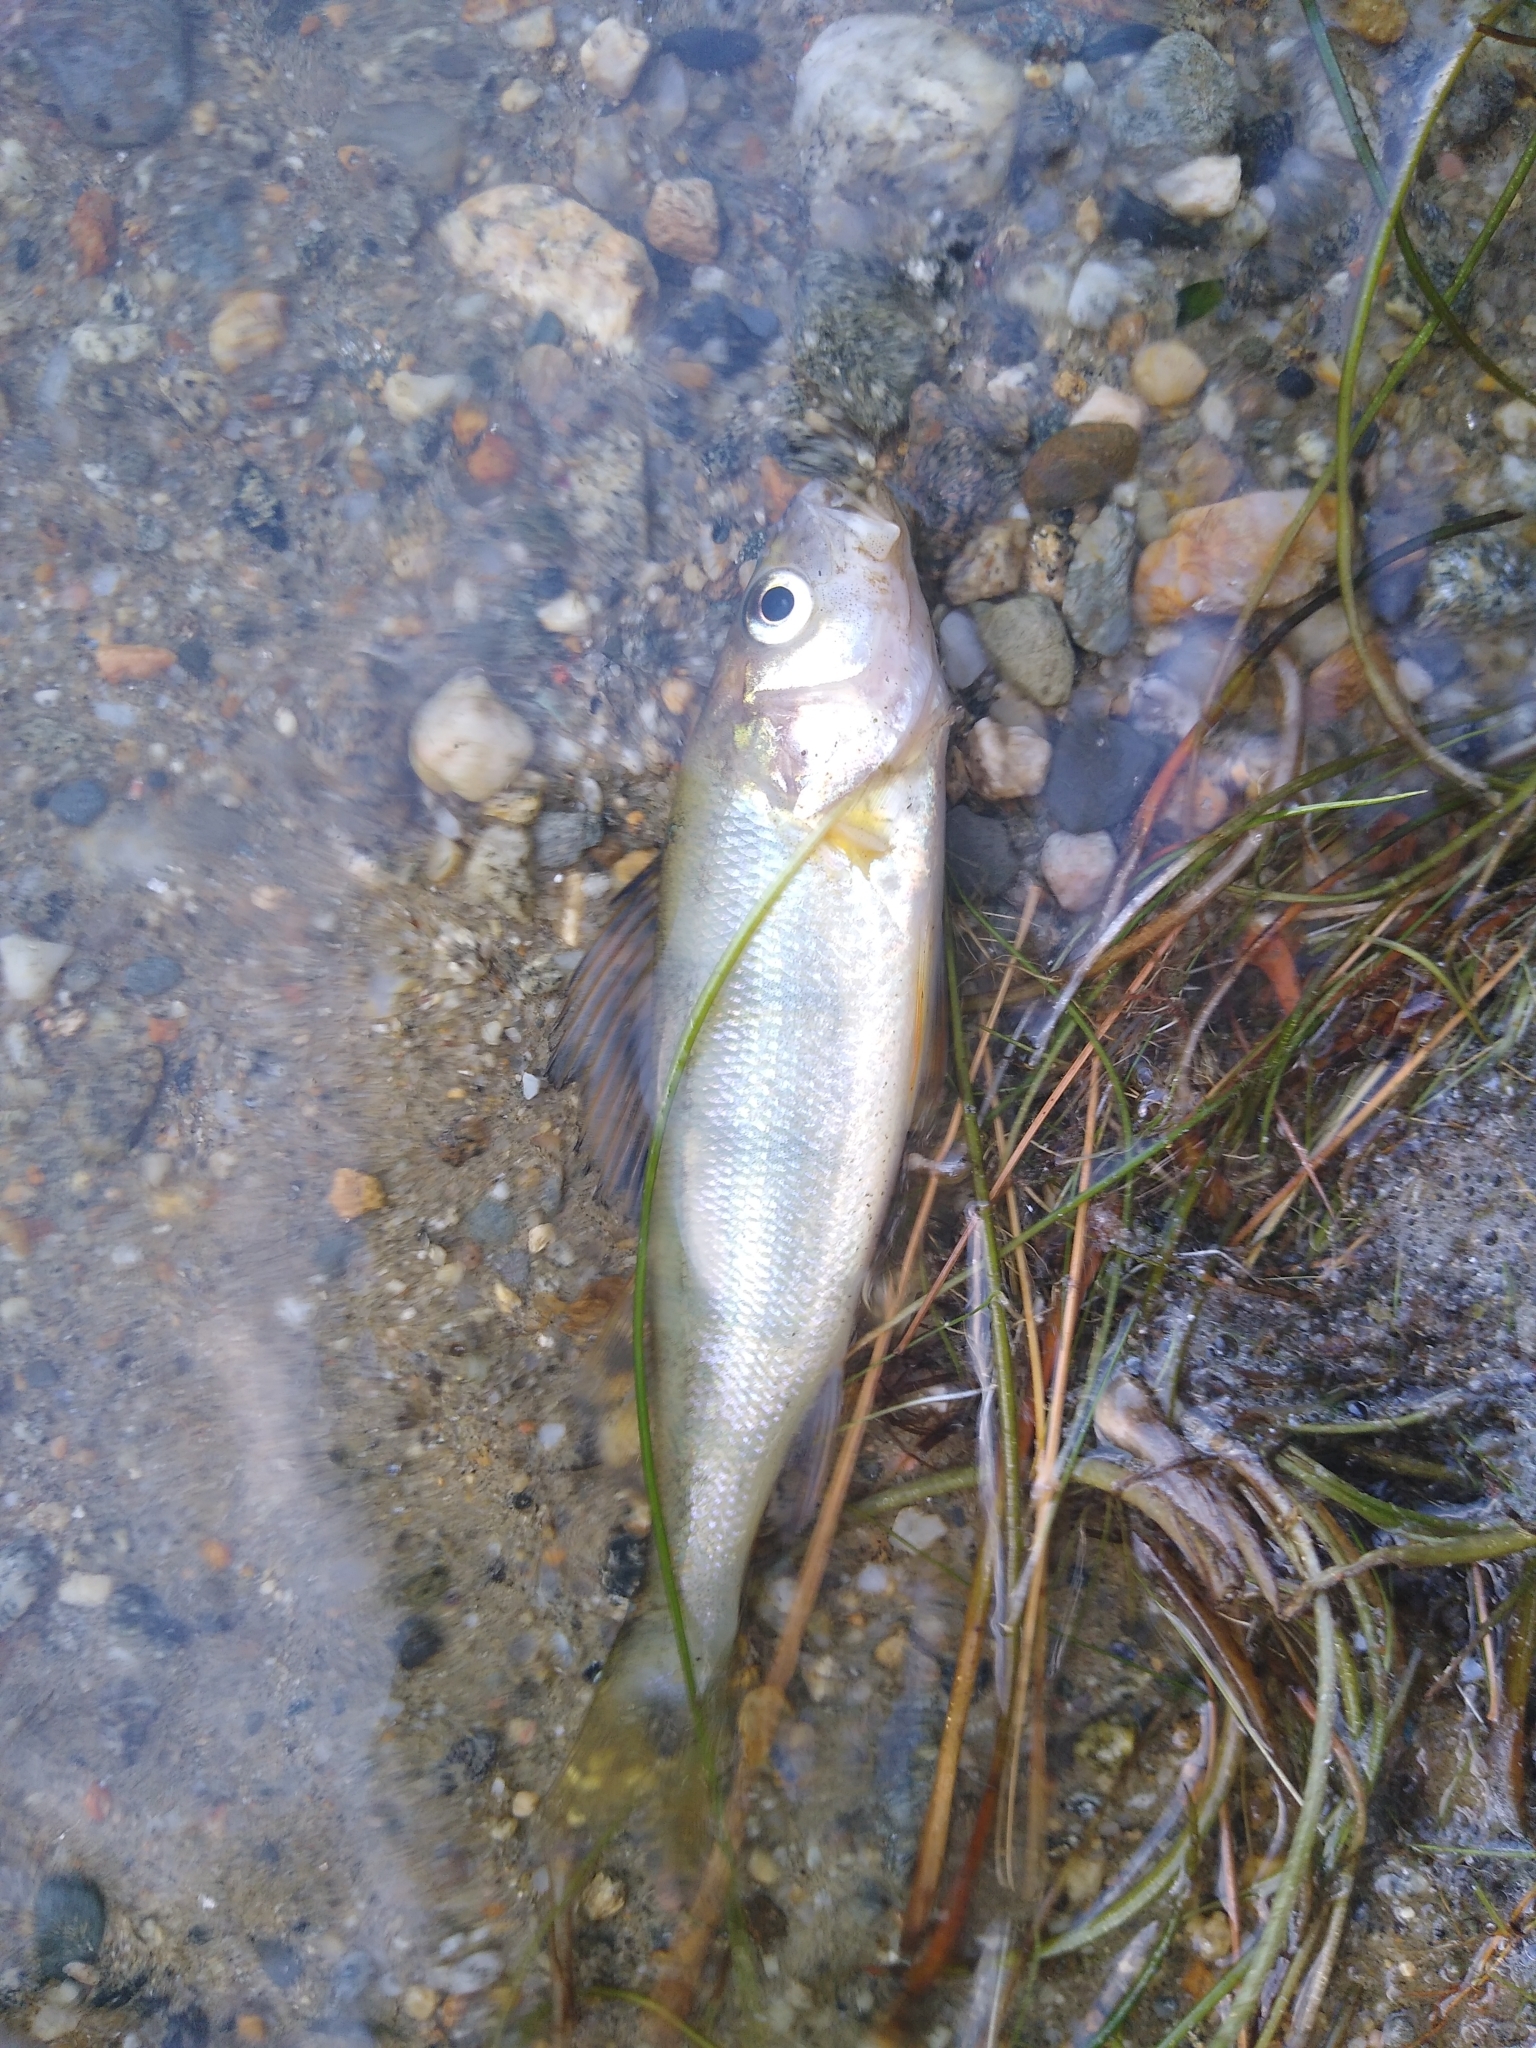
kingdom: Animalia
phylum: Chordata
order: Perciformes
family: Percidae
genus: Perca
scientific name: Perca flavescens
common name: Yellow perch
